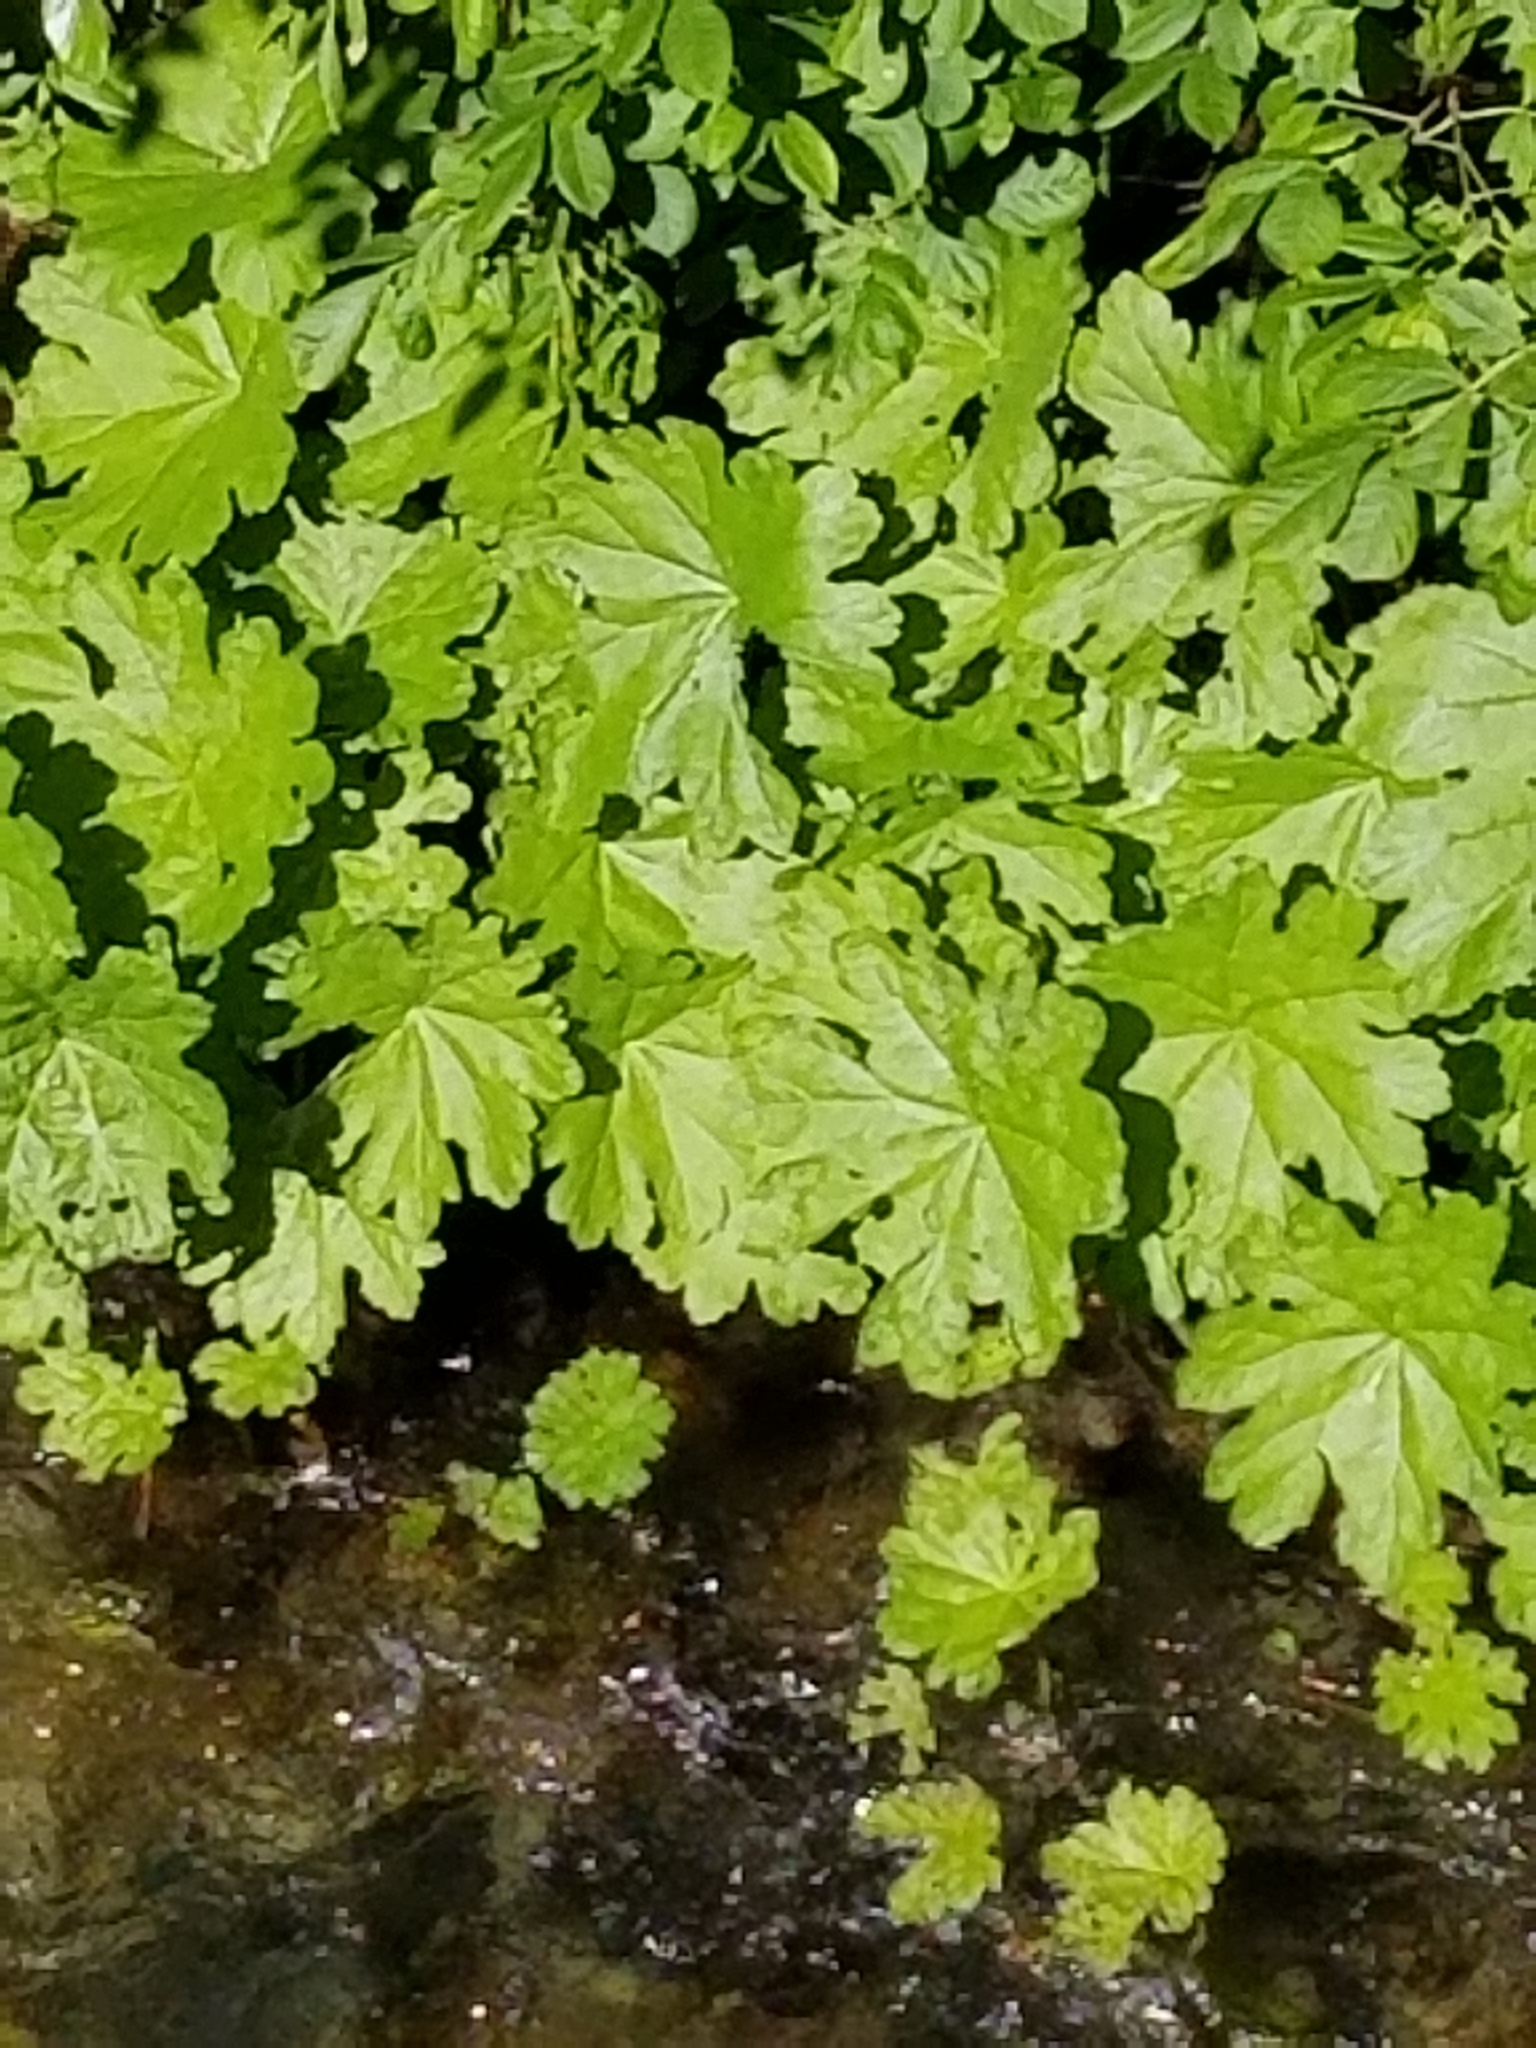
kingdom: Plantae
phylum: Tracheophyta
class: Magnoliopsida
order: Saxifragales
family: Saxifragaceae
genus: Darmera
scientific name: Darmera peltata
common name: Indian-rhubarb
